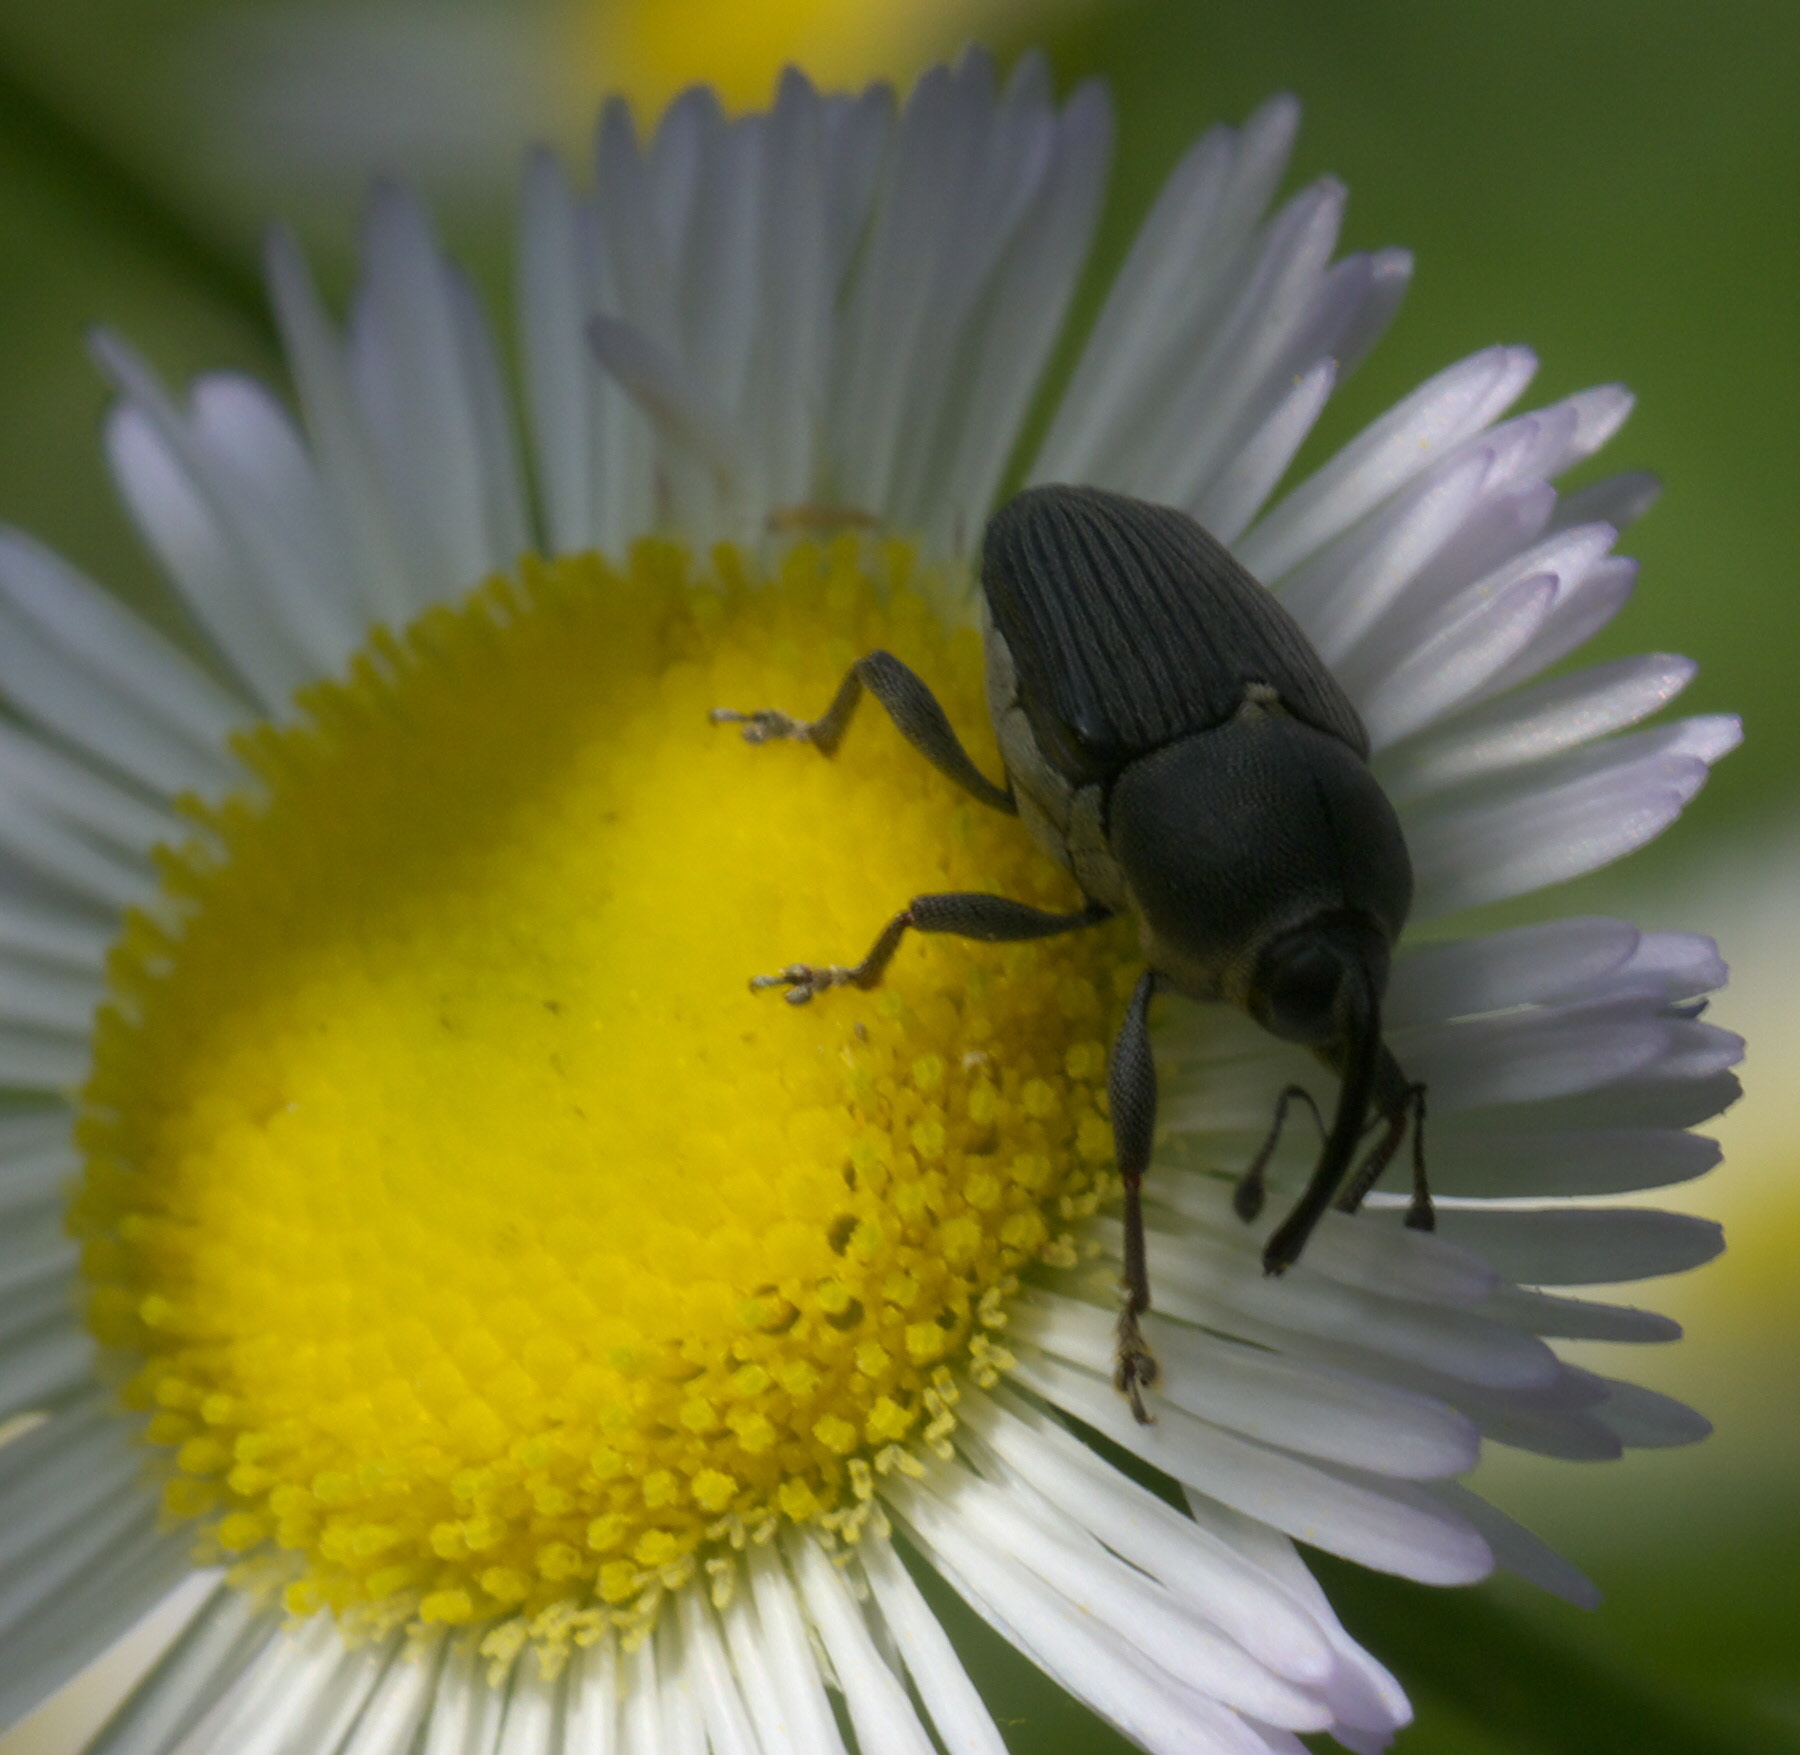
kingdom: Animalia
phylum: Arthropoda
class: Insecta
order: Coleoptera
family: Curculionidae
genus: Odontocorynus
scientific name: Odontocorynus salebrosus
